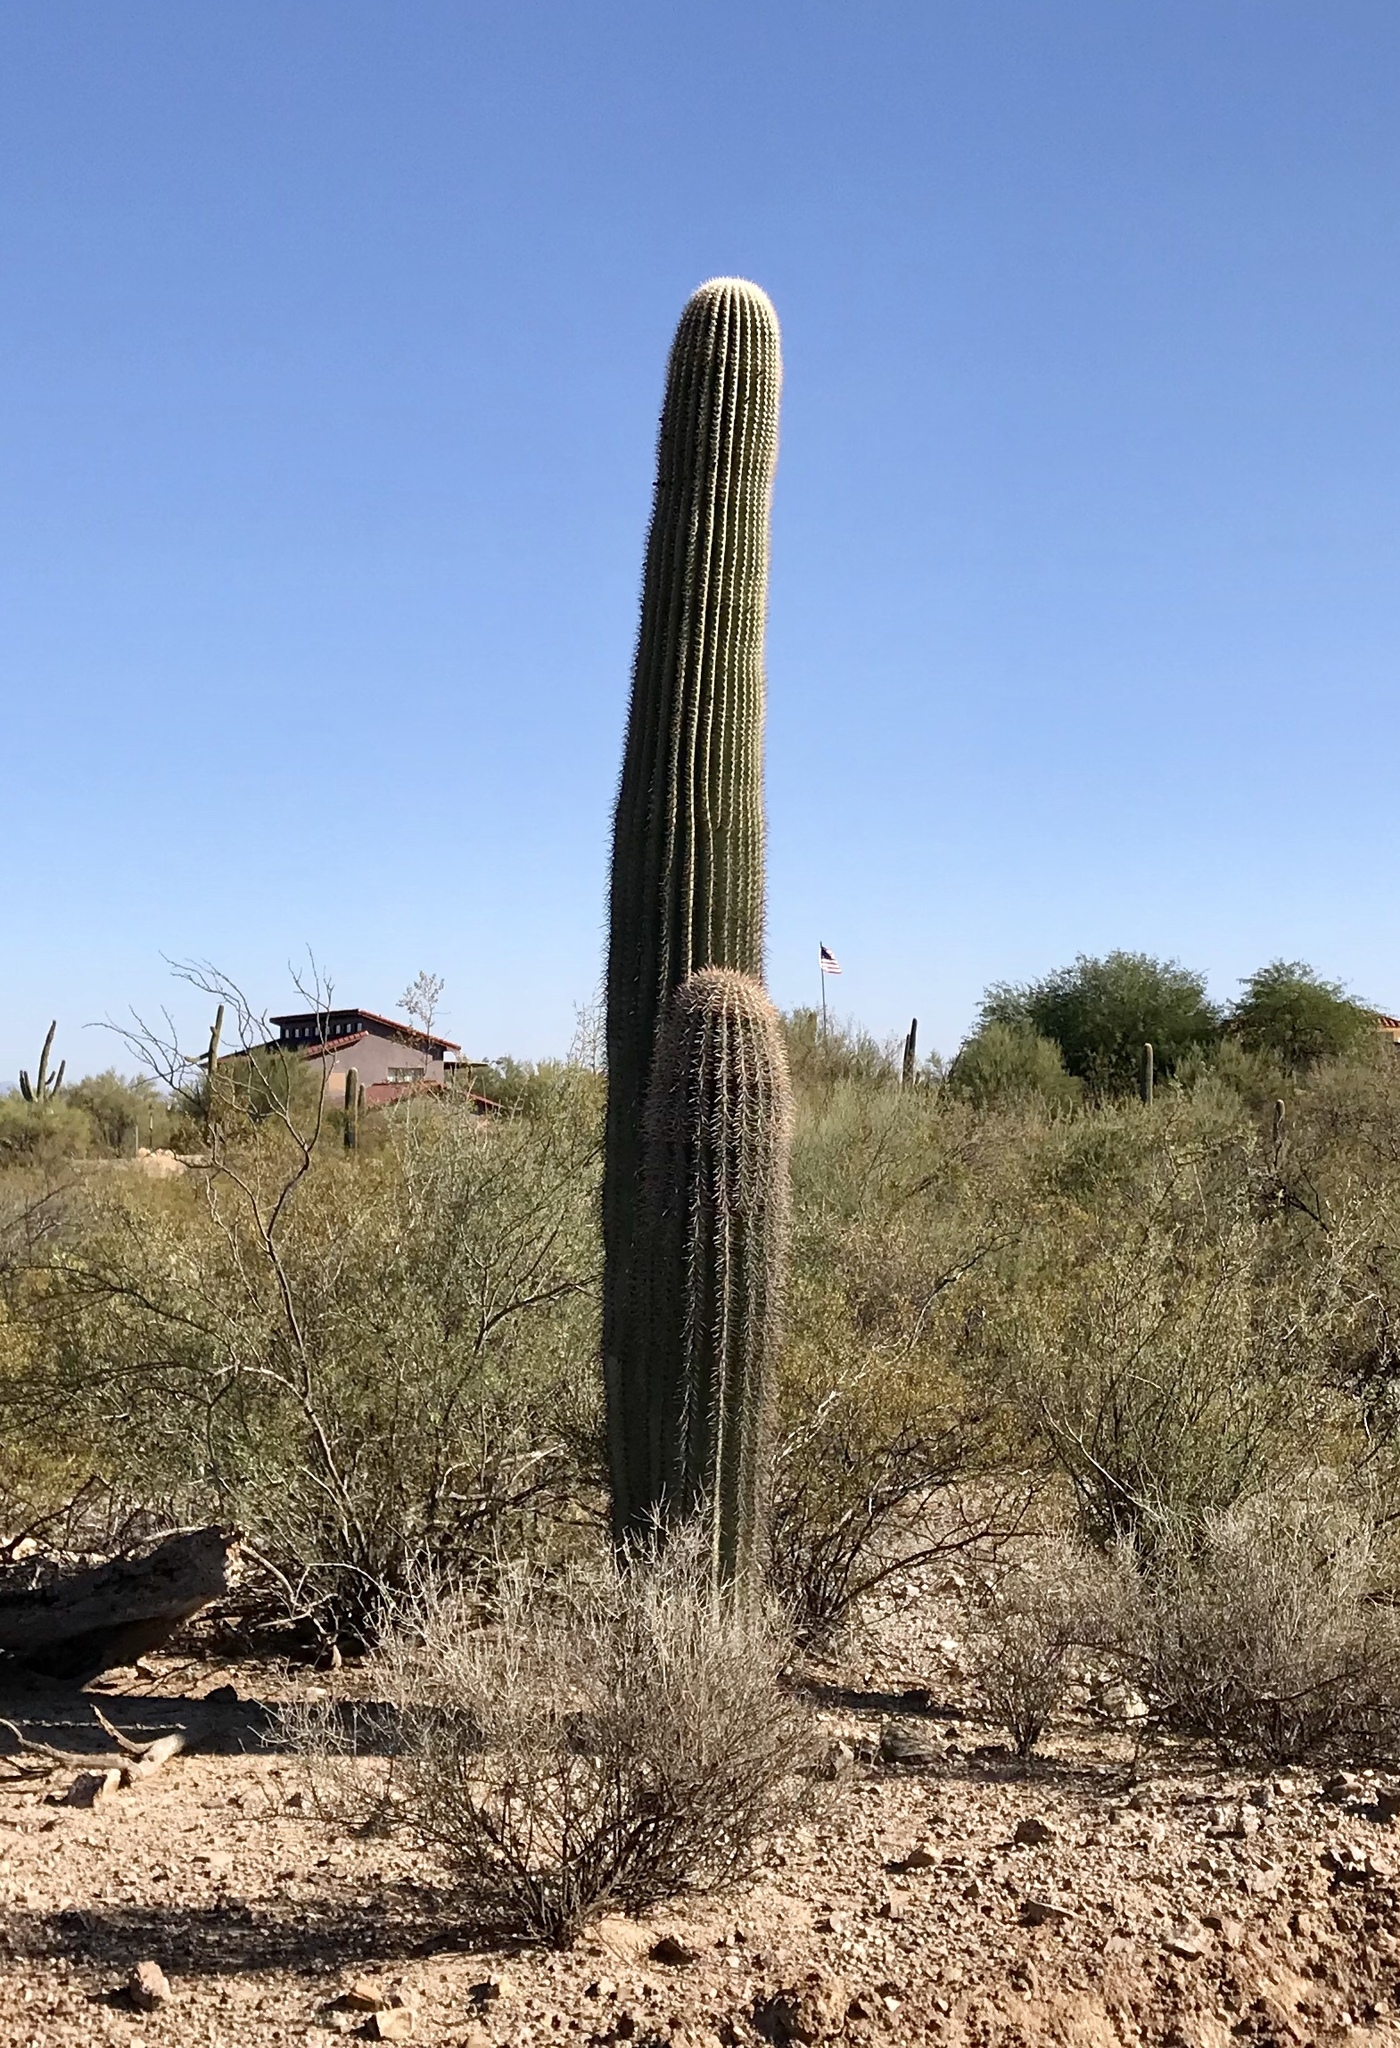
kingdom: Plantae
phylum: Tracheophyta
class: Magnoliopsida
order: Caryophyllales
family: Cactaceae
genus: Carnegiea
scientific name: Carnegiea gigantea
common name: Saguaro
